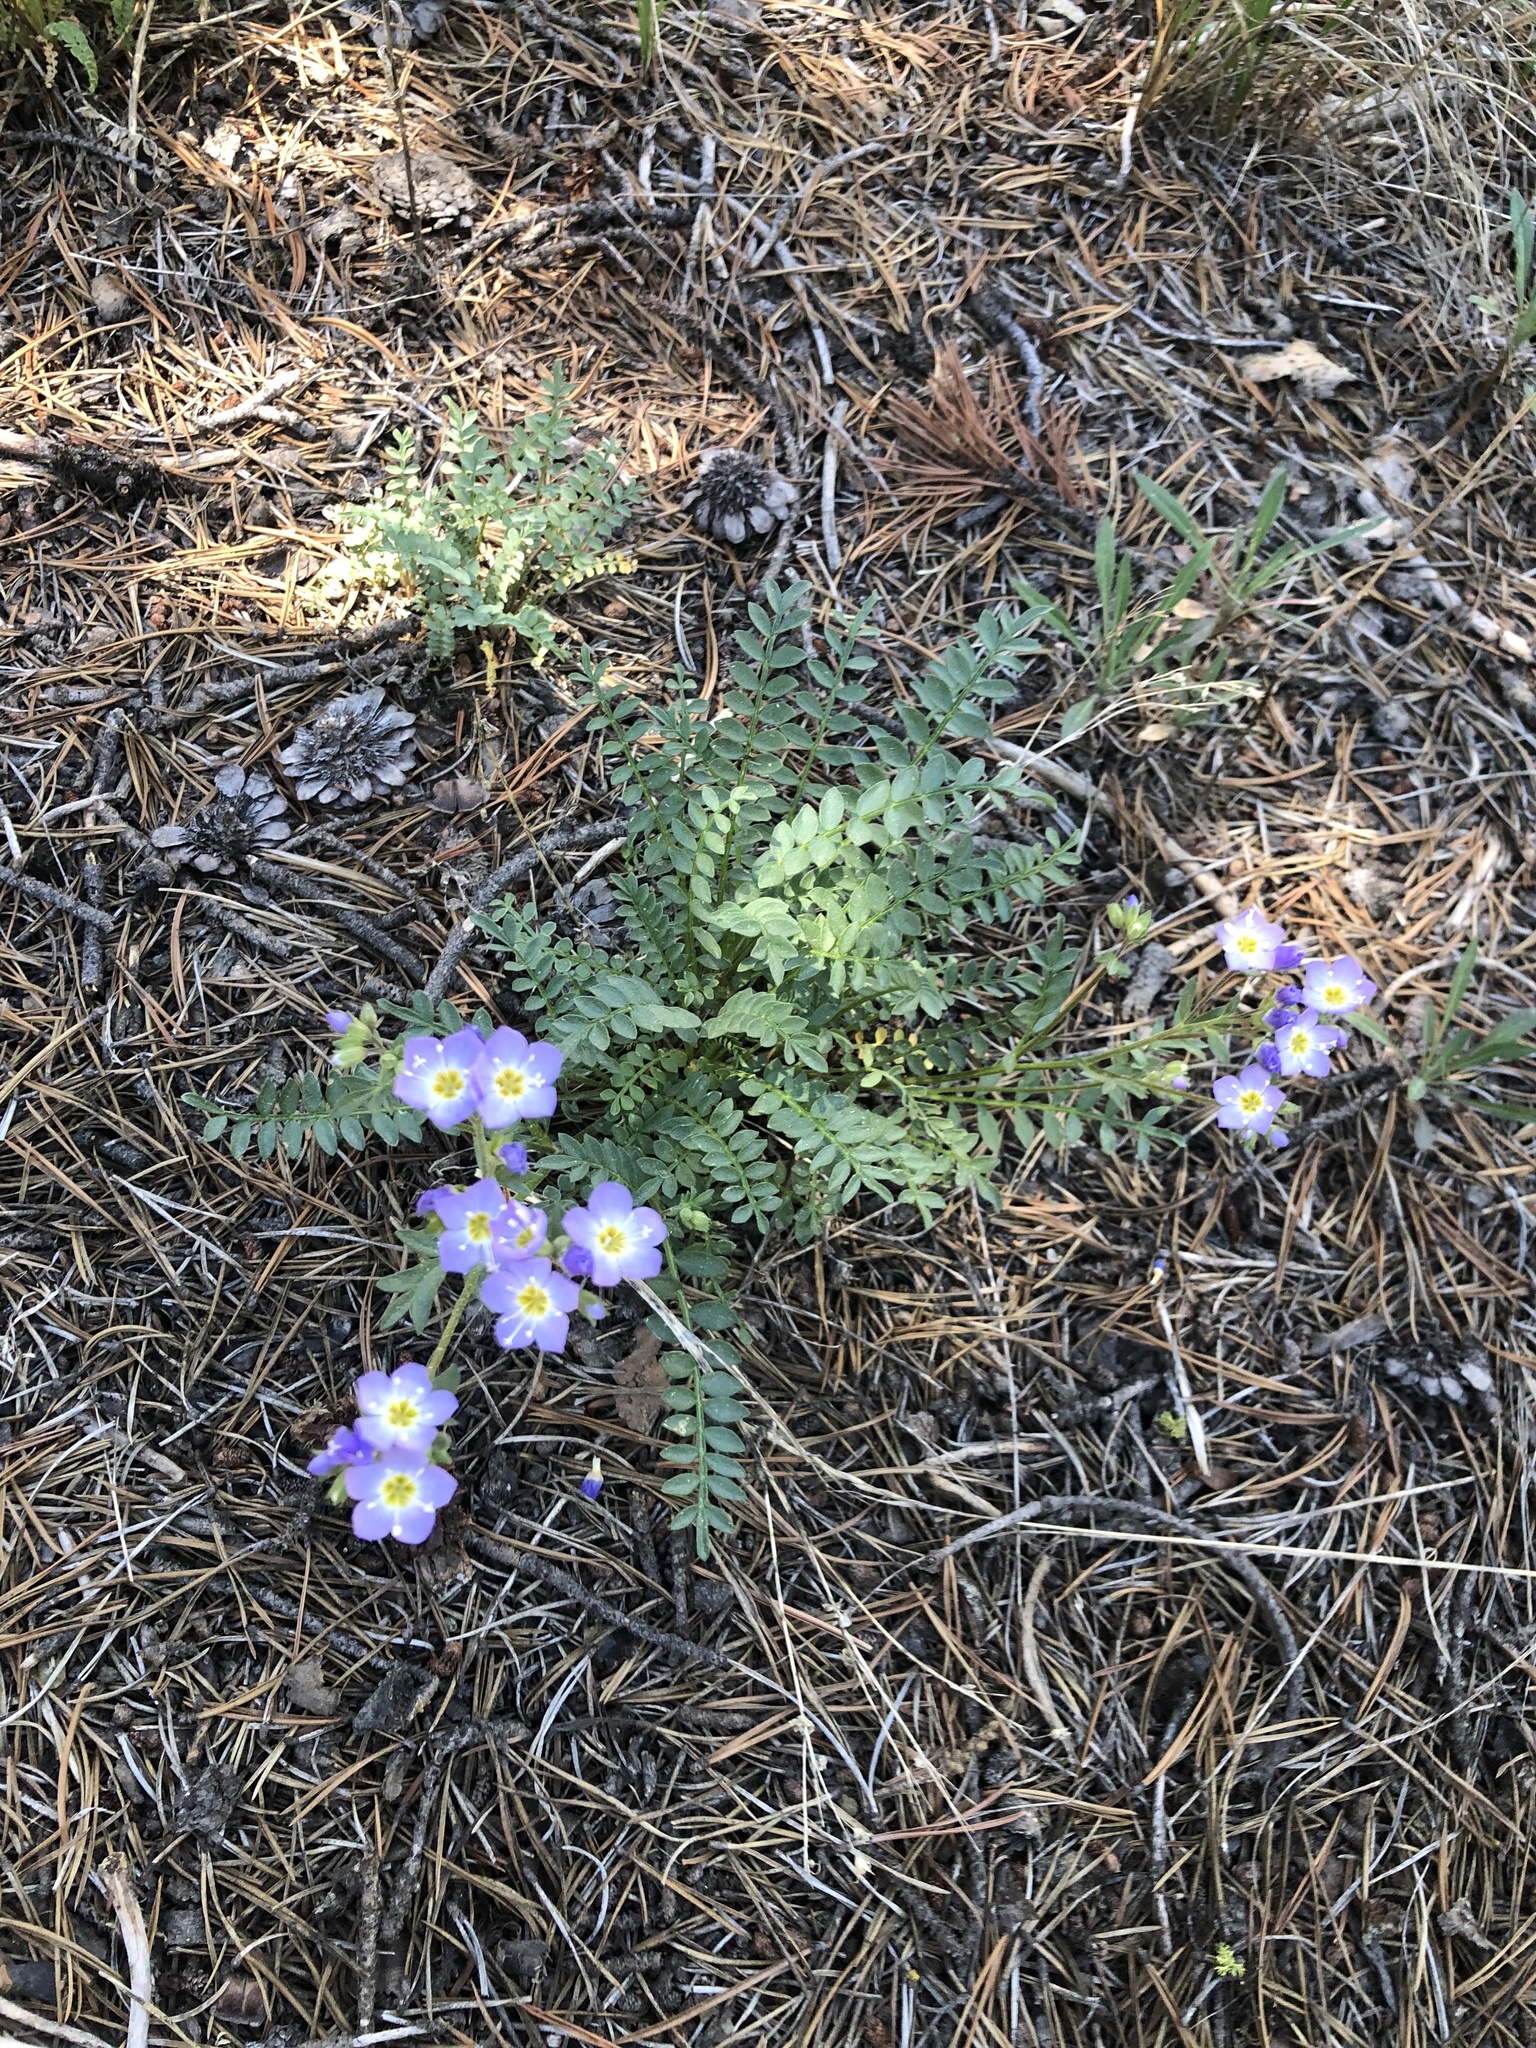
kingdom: Plantae
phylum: Tracheophyta
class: Magnoliopsida
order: Ericales
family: Polemoniaceae
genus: Polemonium
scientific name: Polemonium pulcherrimum
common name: Short jacob's-ladder
